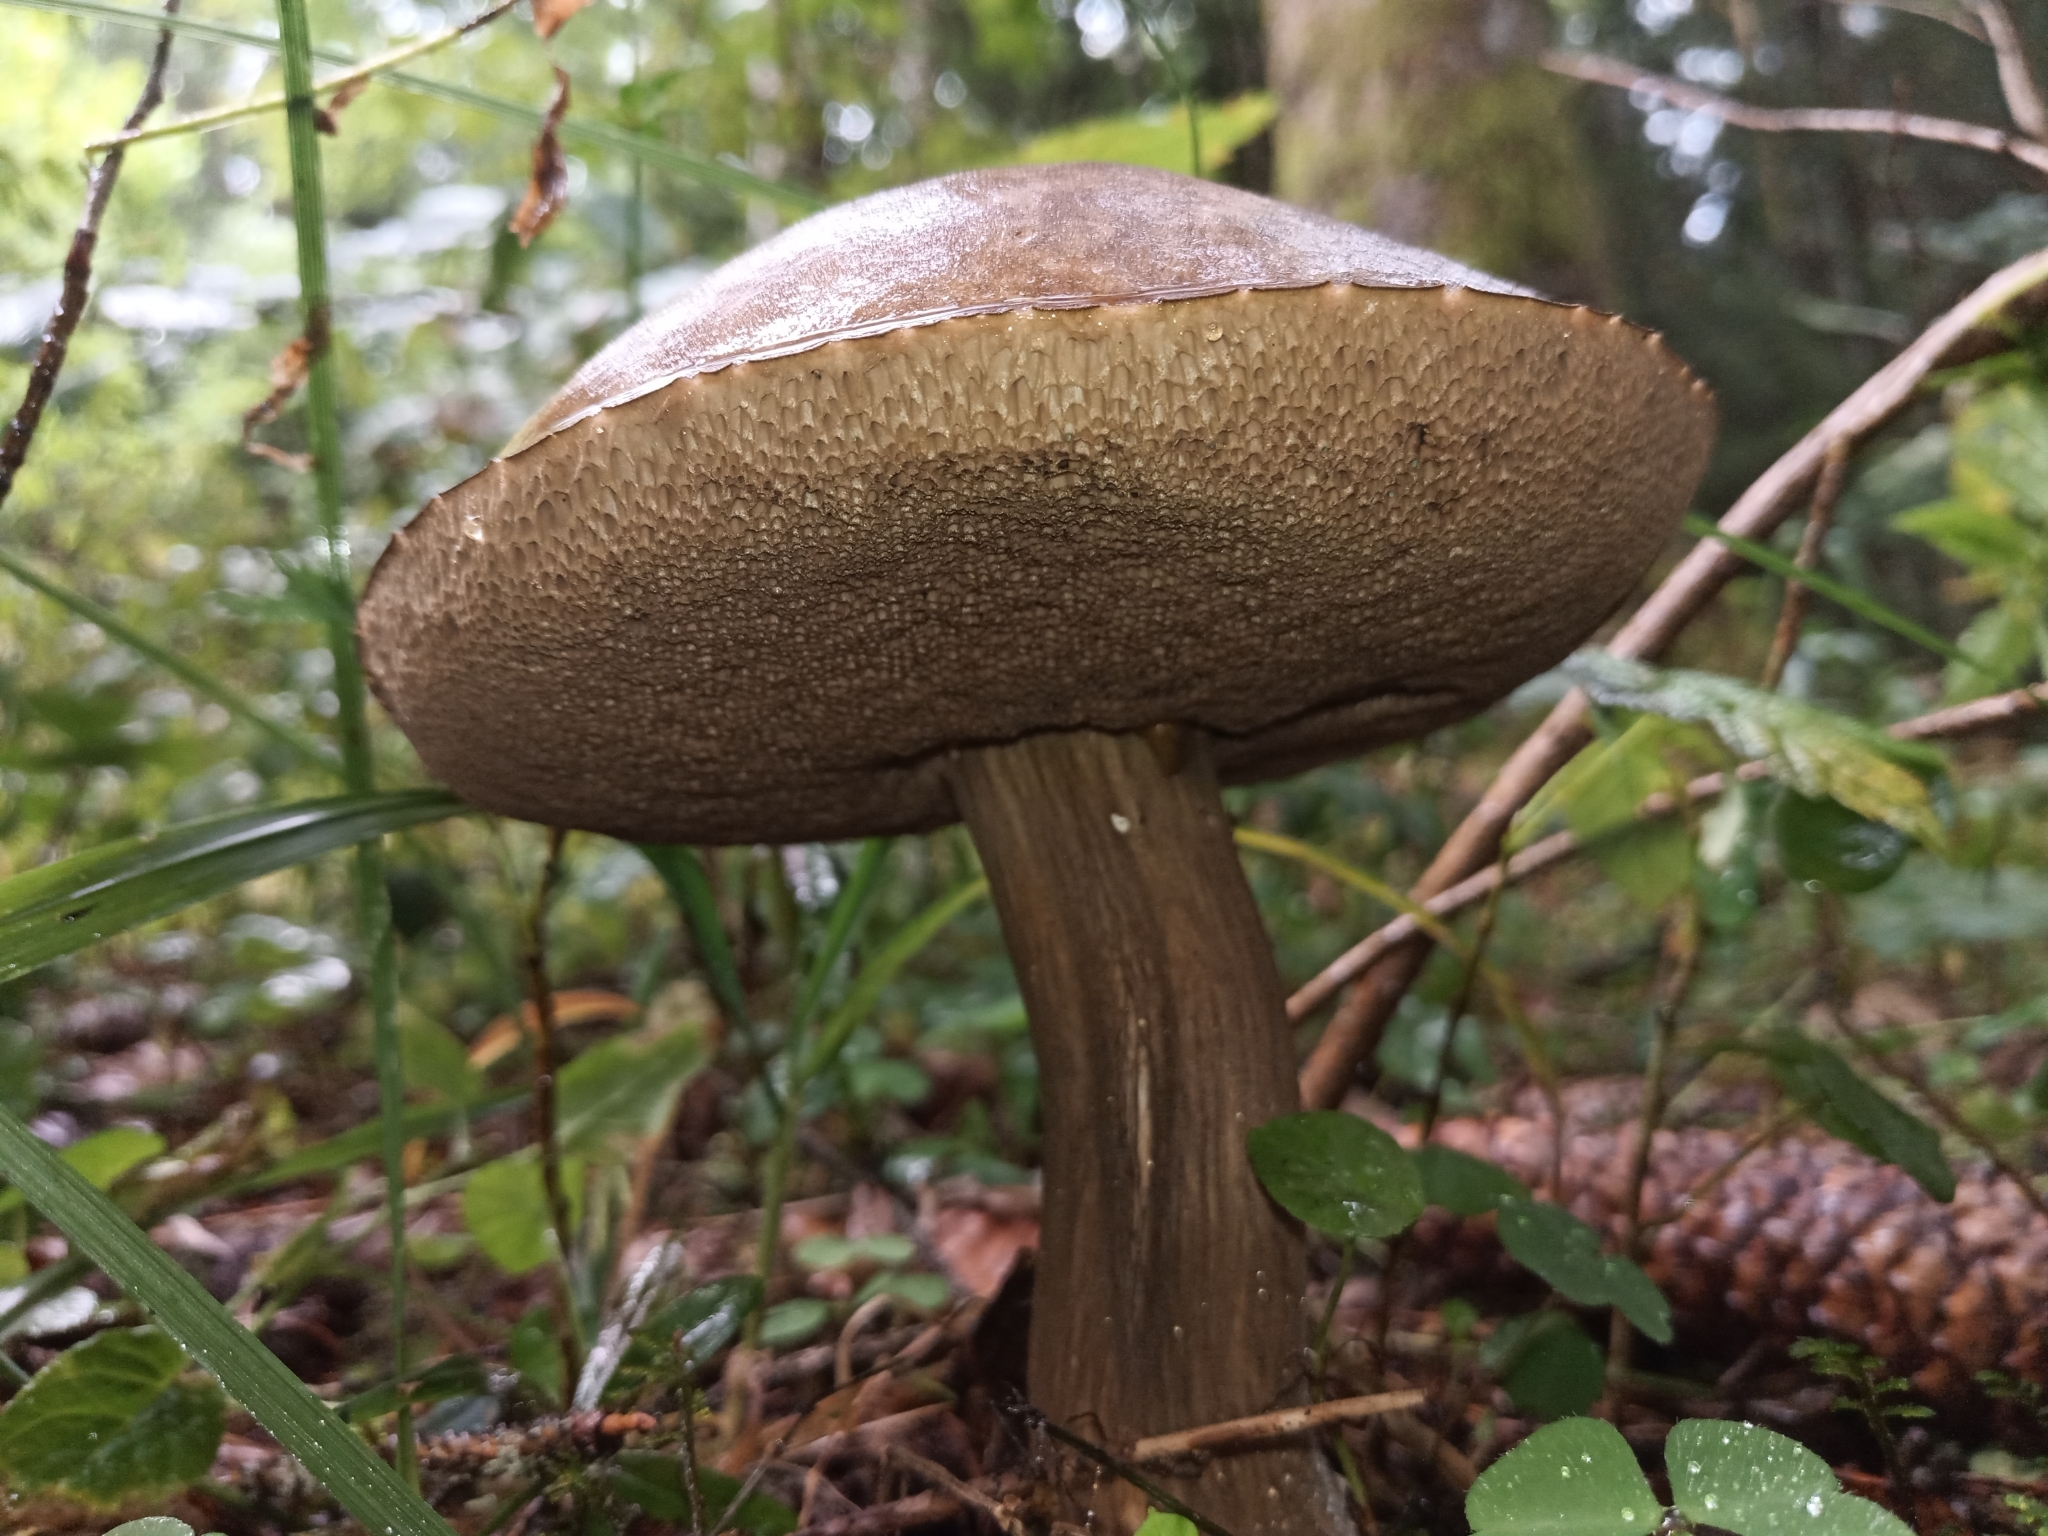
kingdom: Fungi
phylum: Basidiomycota
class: Agaricomycetes
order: Boletales
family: Boletaceae
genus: Porphyrellus
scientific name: Porphyrellus porphyrosporus
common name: Dusky bolete
